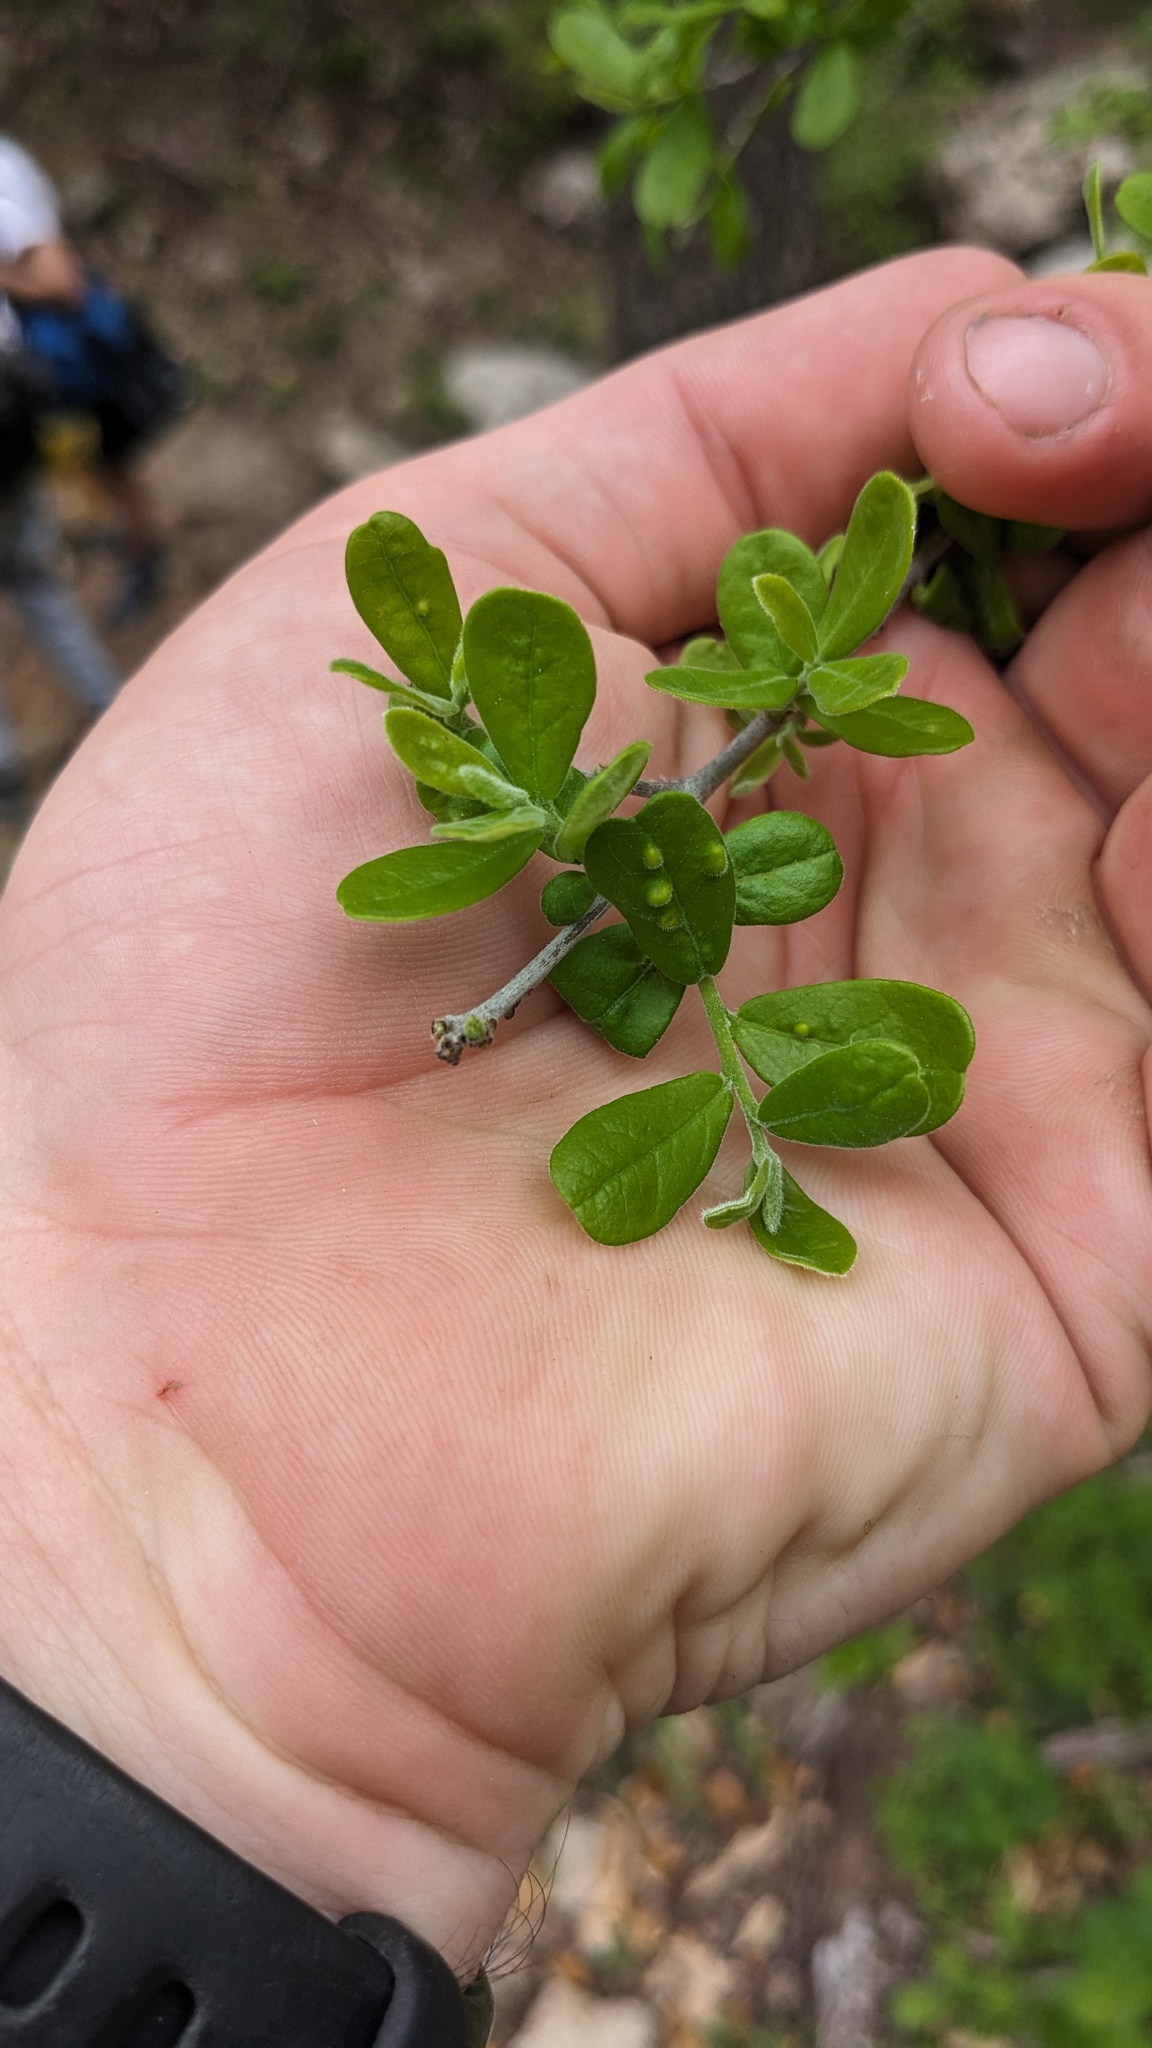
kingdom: Plantae
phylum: Tracheophyta
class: Magnoliopsida
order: Ericales
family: Ebenaceae
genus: Diospyros
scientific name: Diospyros texana
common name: Texas persimmon
